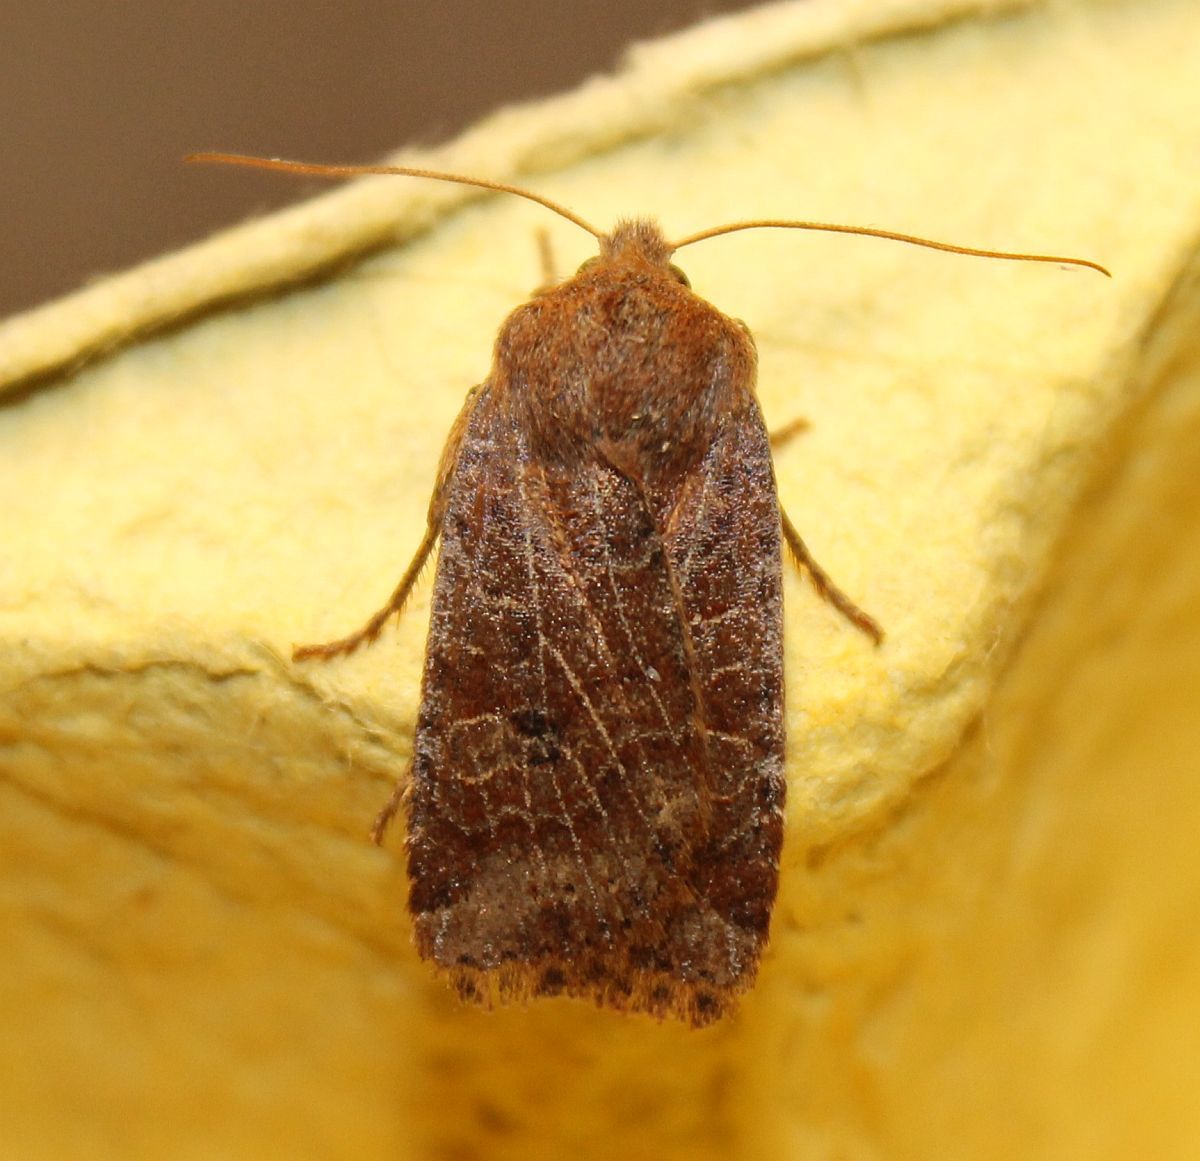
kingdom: Animalia
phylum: Arthropoda
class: Insecta
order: Lepidoptera
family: Noctuidae
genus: Conistra
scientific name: Conistra vaccinii
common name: Chestnut
